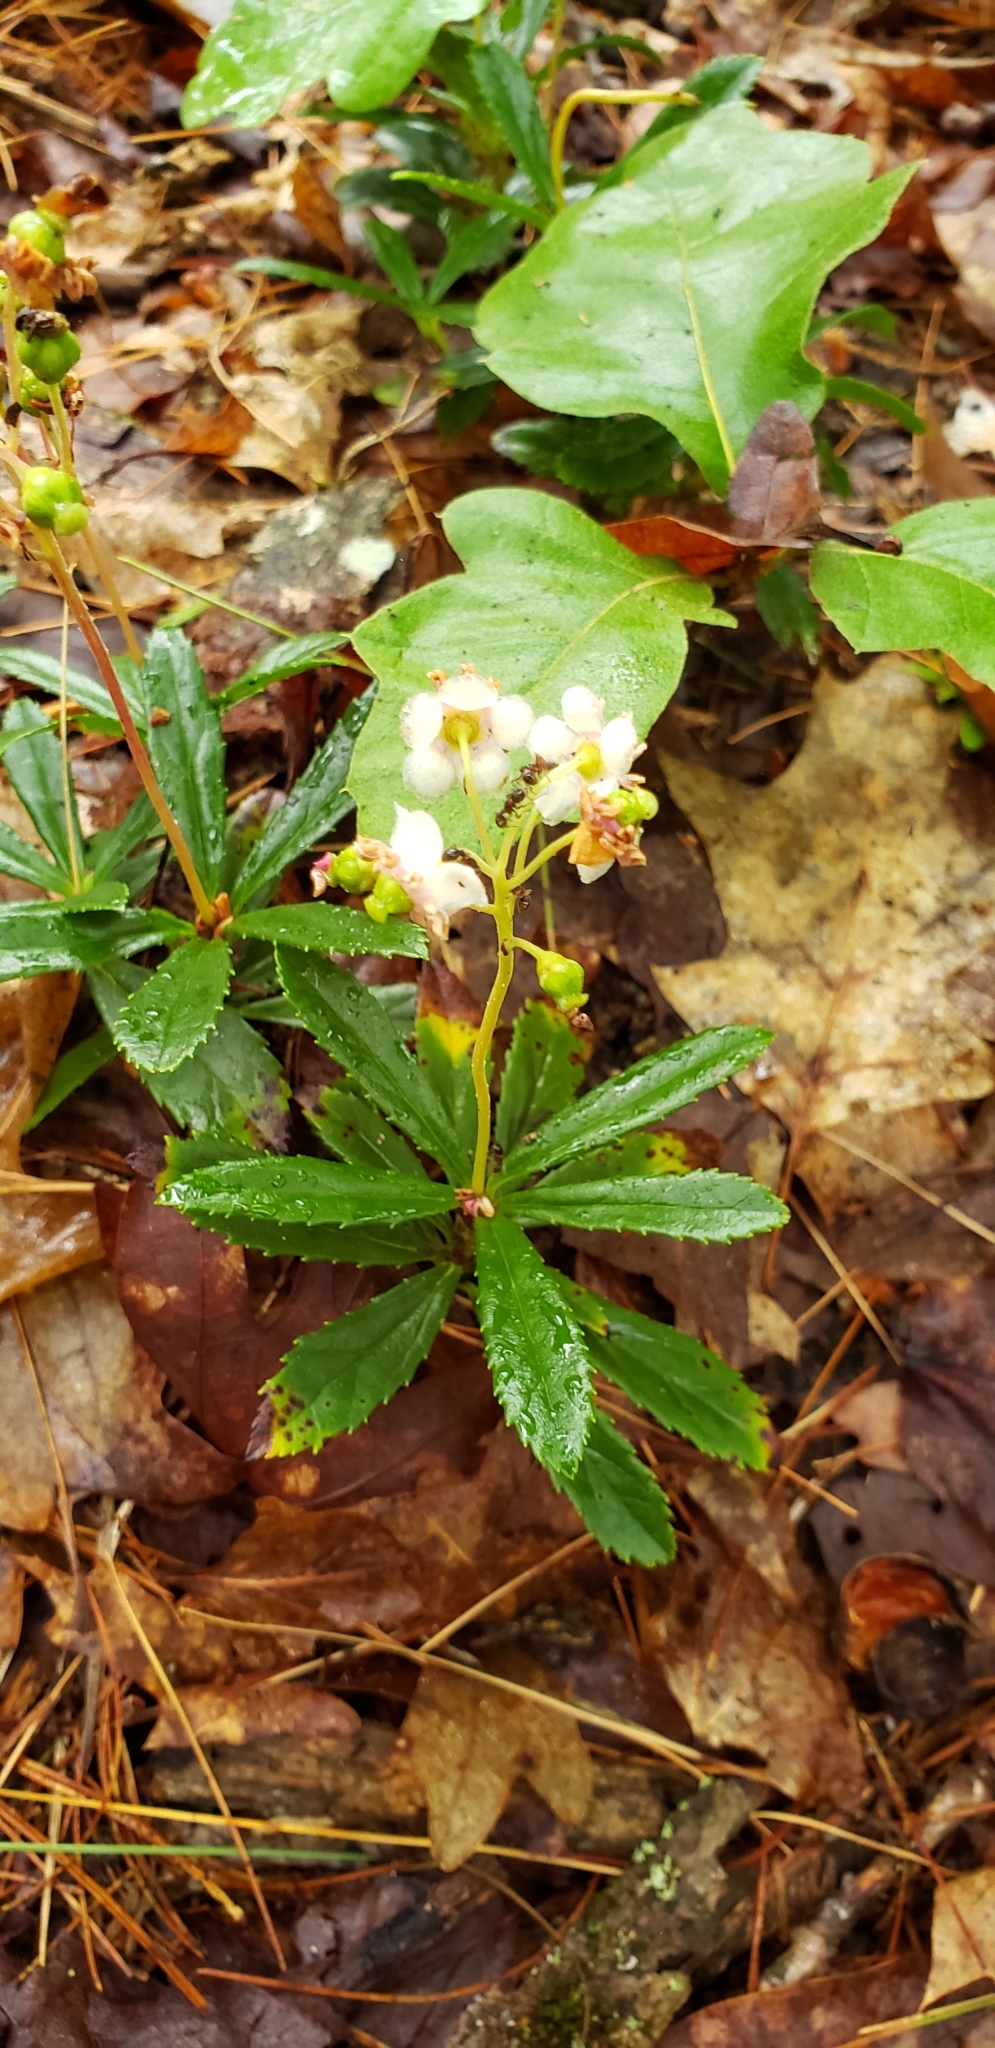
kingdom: Plantae
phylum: Tracheophyta
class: Magnoliopsida
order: Ericales
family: Ericaceae
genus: Chimaphila
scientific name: Chimaphila umbellata
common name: Pipsissewa
